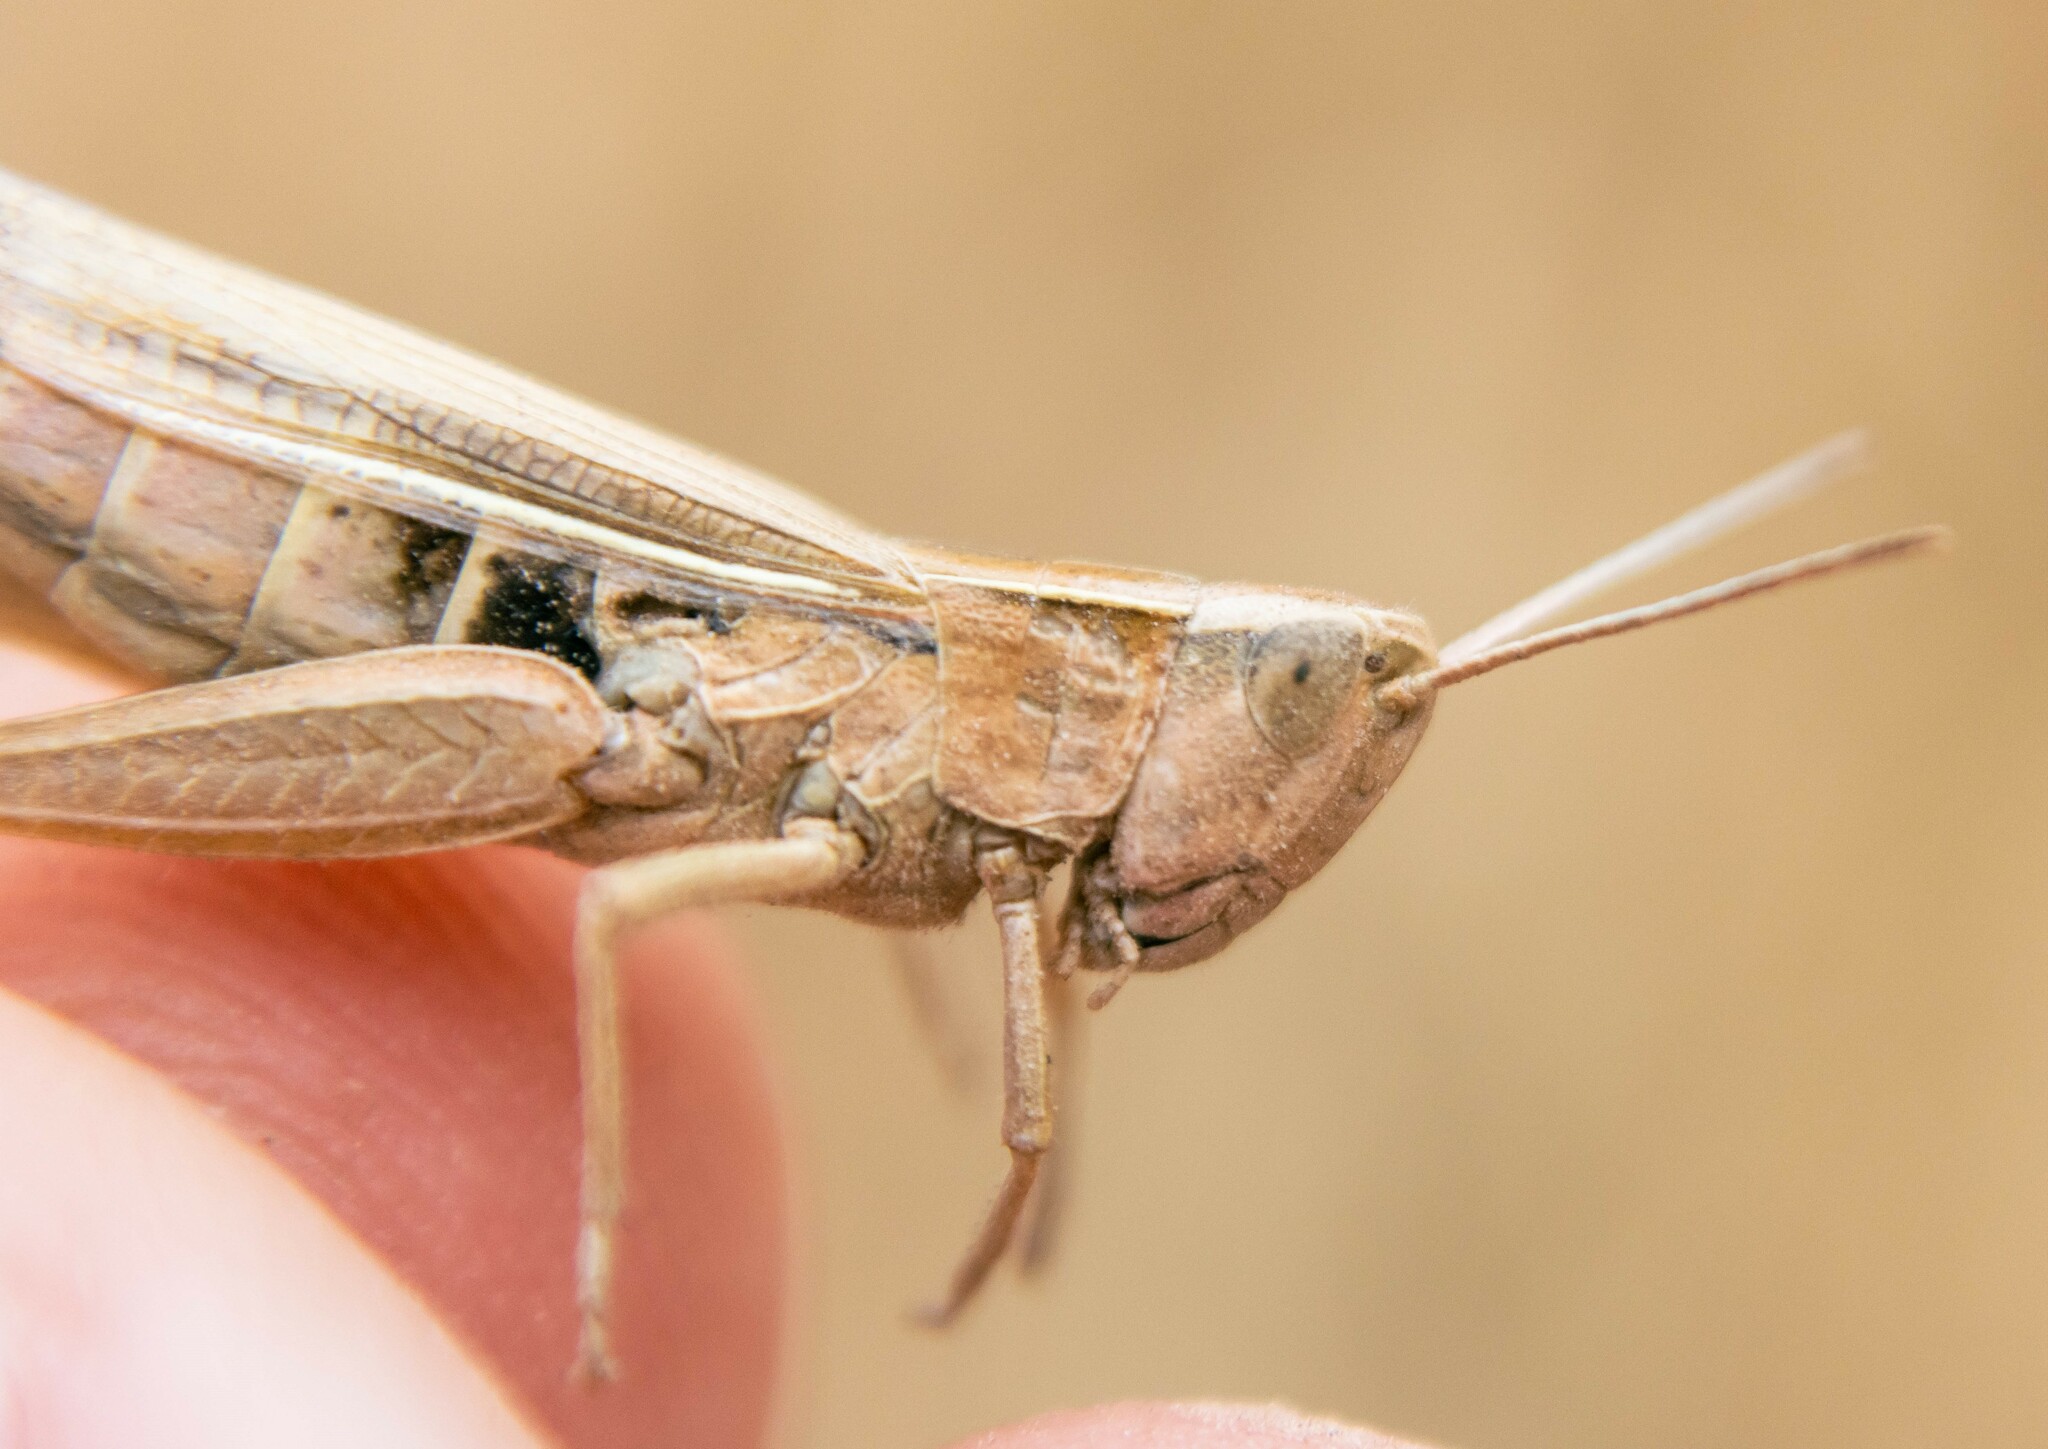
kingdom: Animalia
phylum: Arthropoda
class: Insecta
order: Orthoptera
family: Acrididae
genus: Chorthippus
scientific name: Chorthippus albomarginatus
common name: Lesser marsh grasshopper
